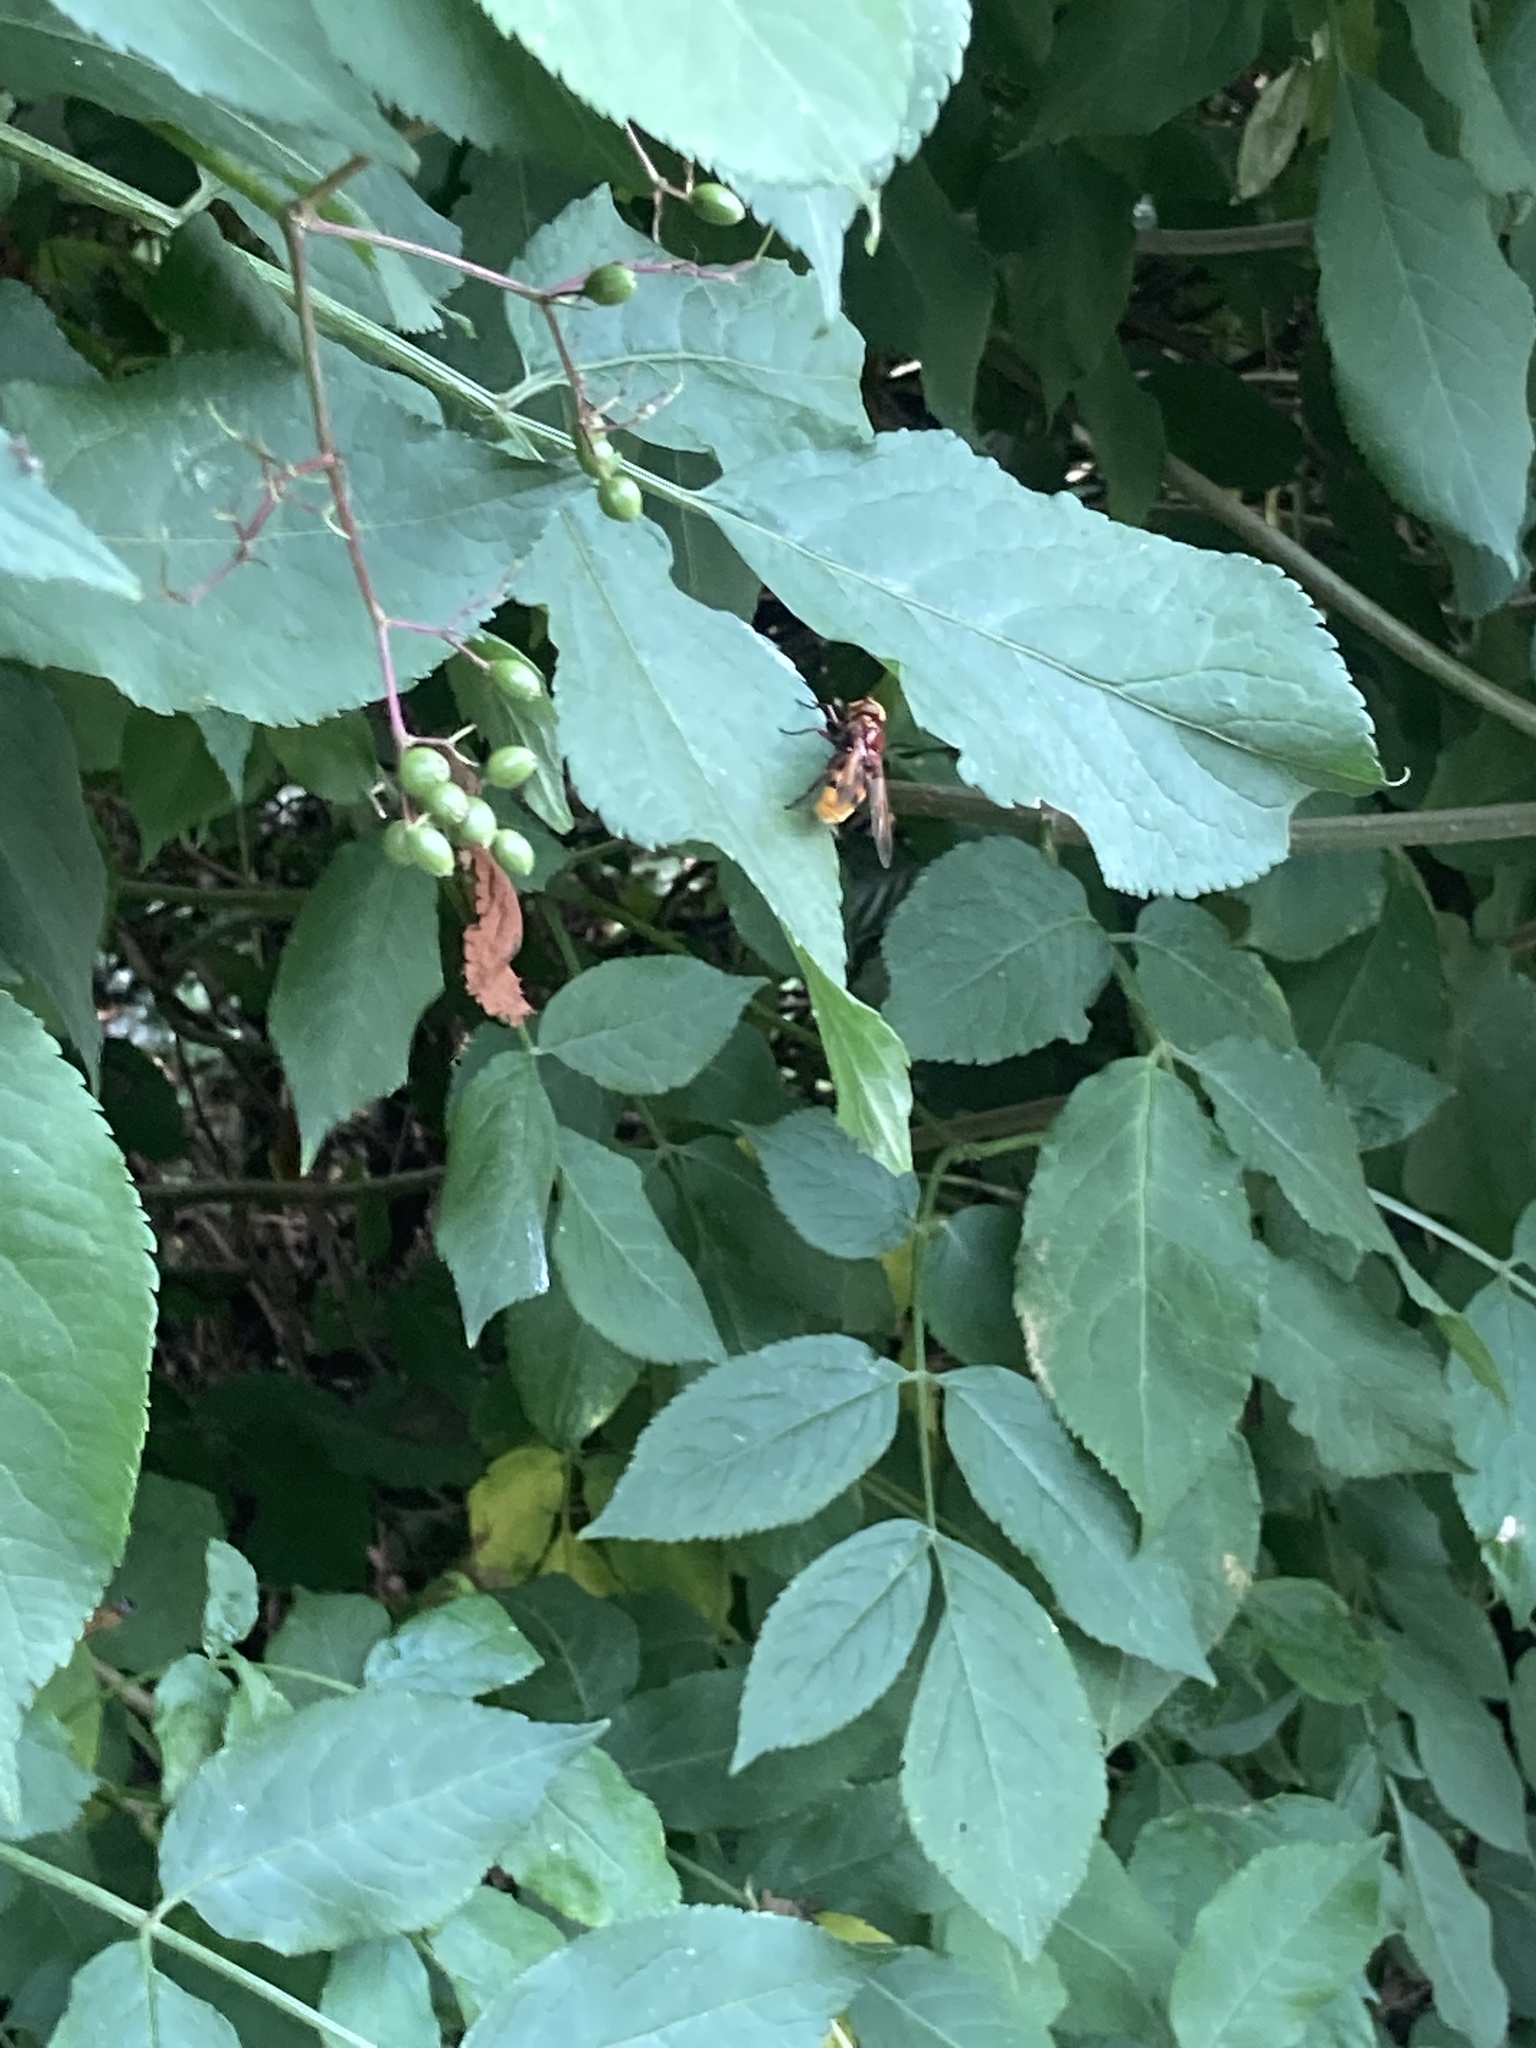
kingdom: Animalia
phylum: Arthropoda
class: Insecta
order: Diptera
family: Syrphidae
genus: Volucella
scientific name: Volucella zonaria
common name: Hornet hoverfly
